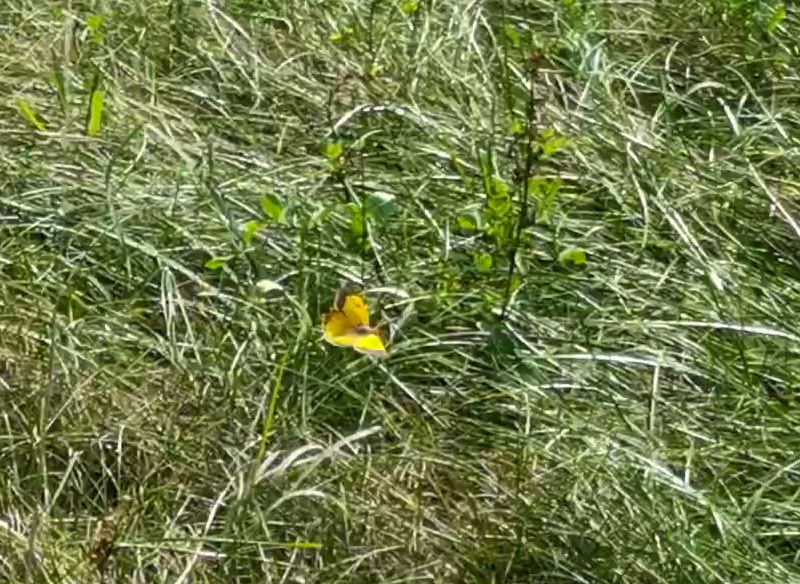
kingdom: Animalia
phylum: Arthropoda
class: Insecta
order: Lepidoptera
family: Pieridae
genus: Colias
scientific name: Colias croceus
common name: Clouded yellow
